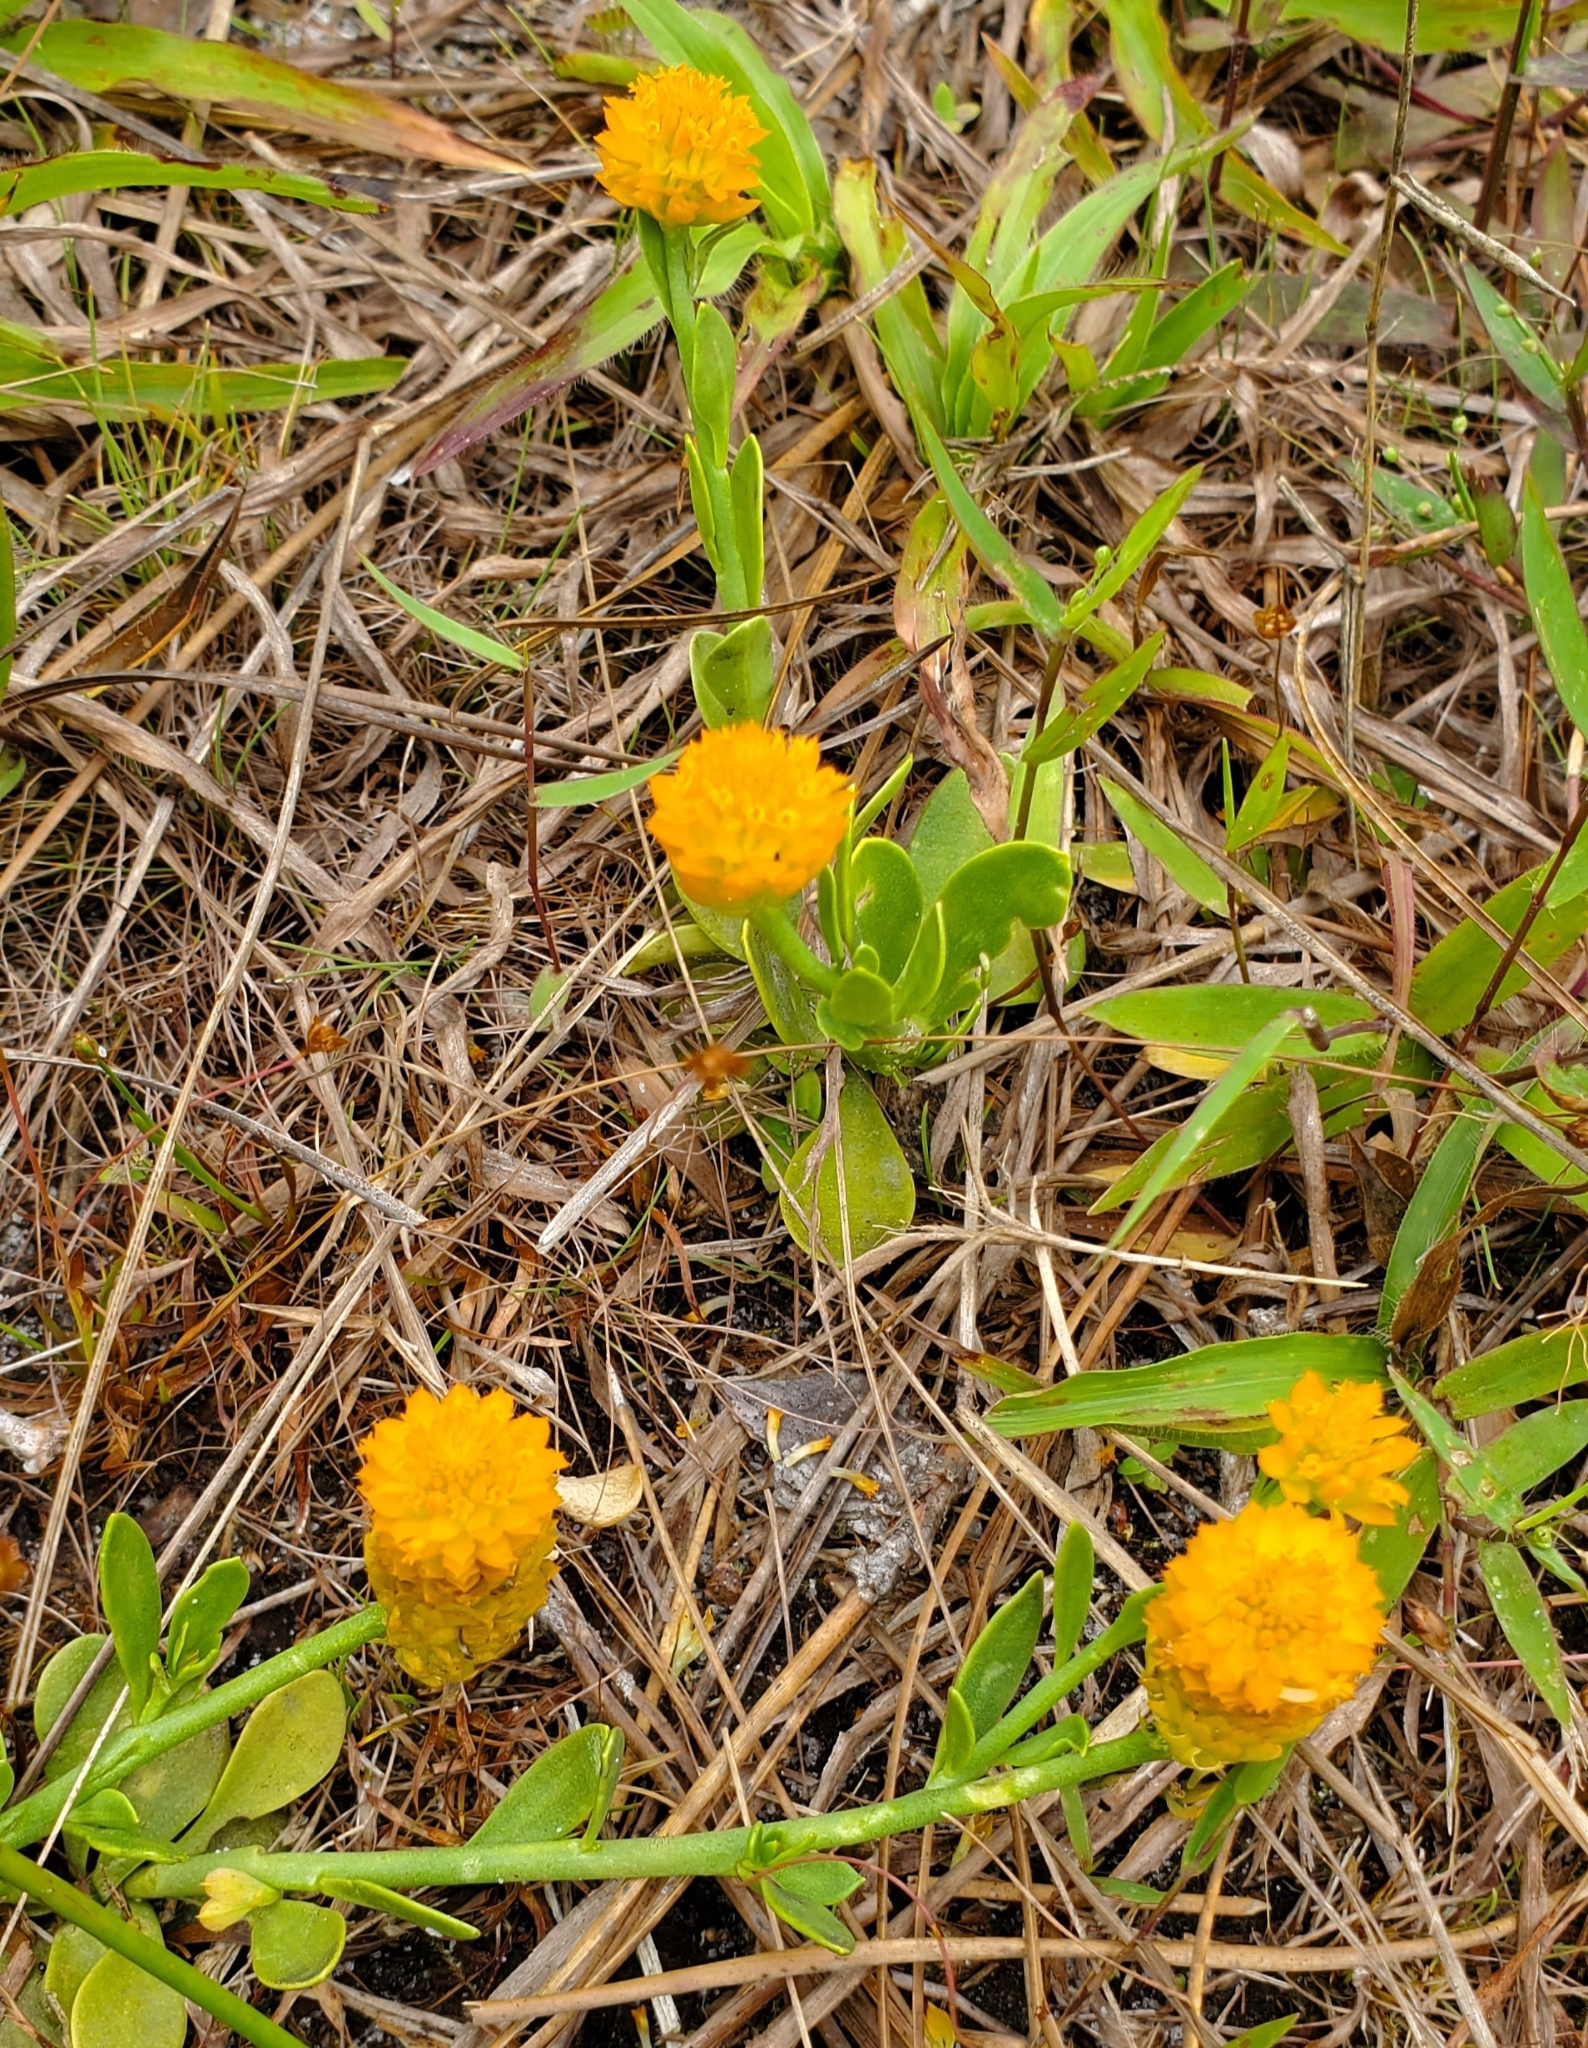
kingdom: Plantae
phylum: Tracheophyta
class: Magnoliopsida
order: Fabales
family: Polygalaceae
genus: Polygala
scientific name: Polygala lutea
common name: Orange milkwort
